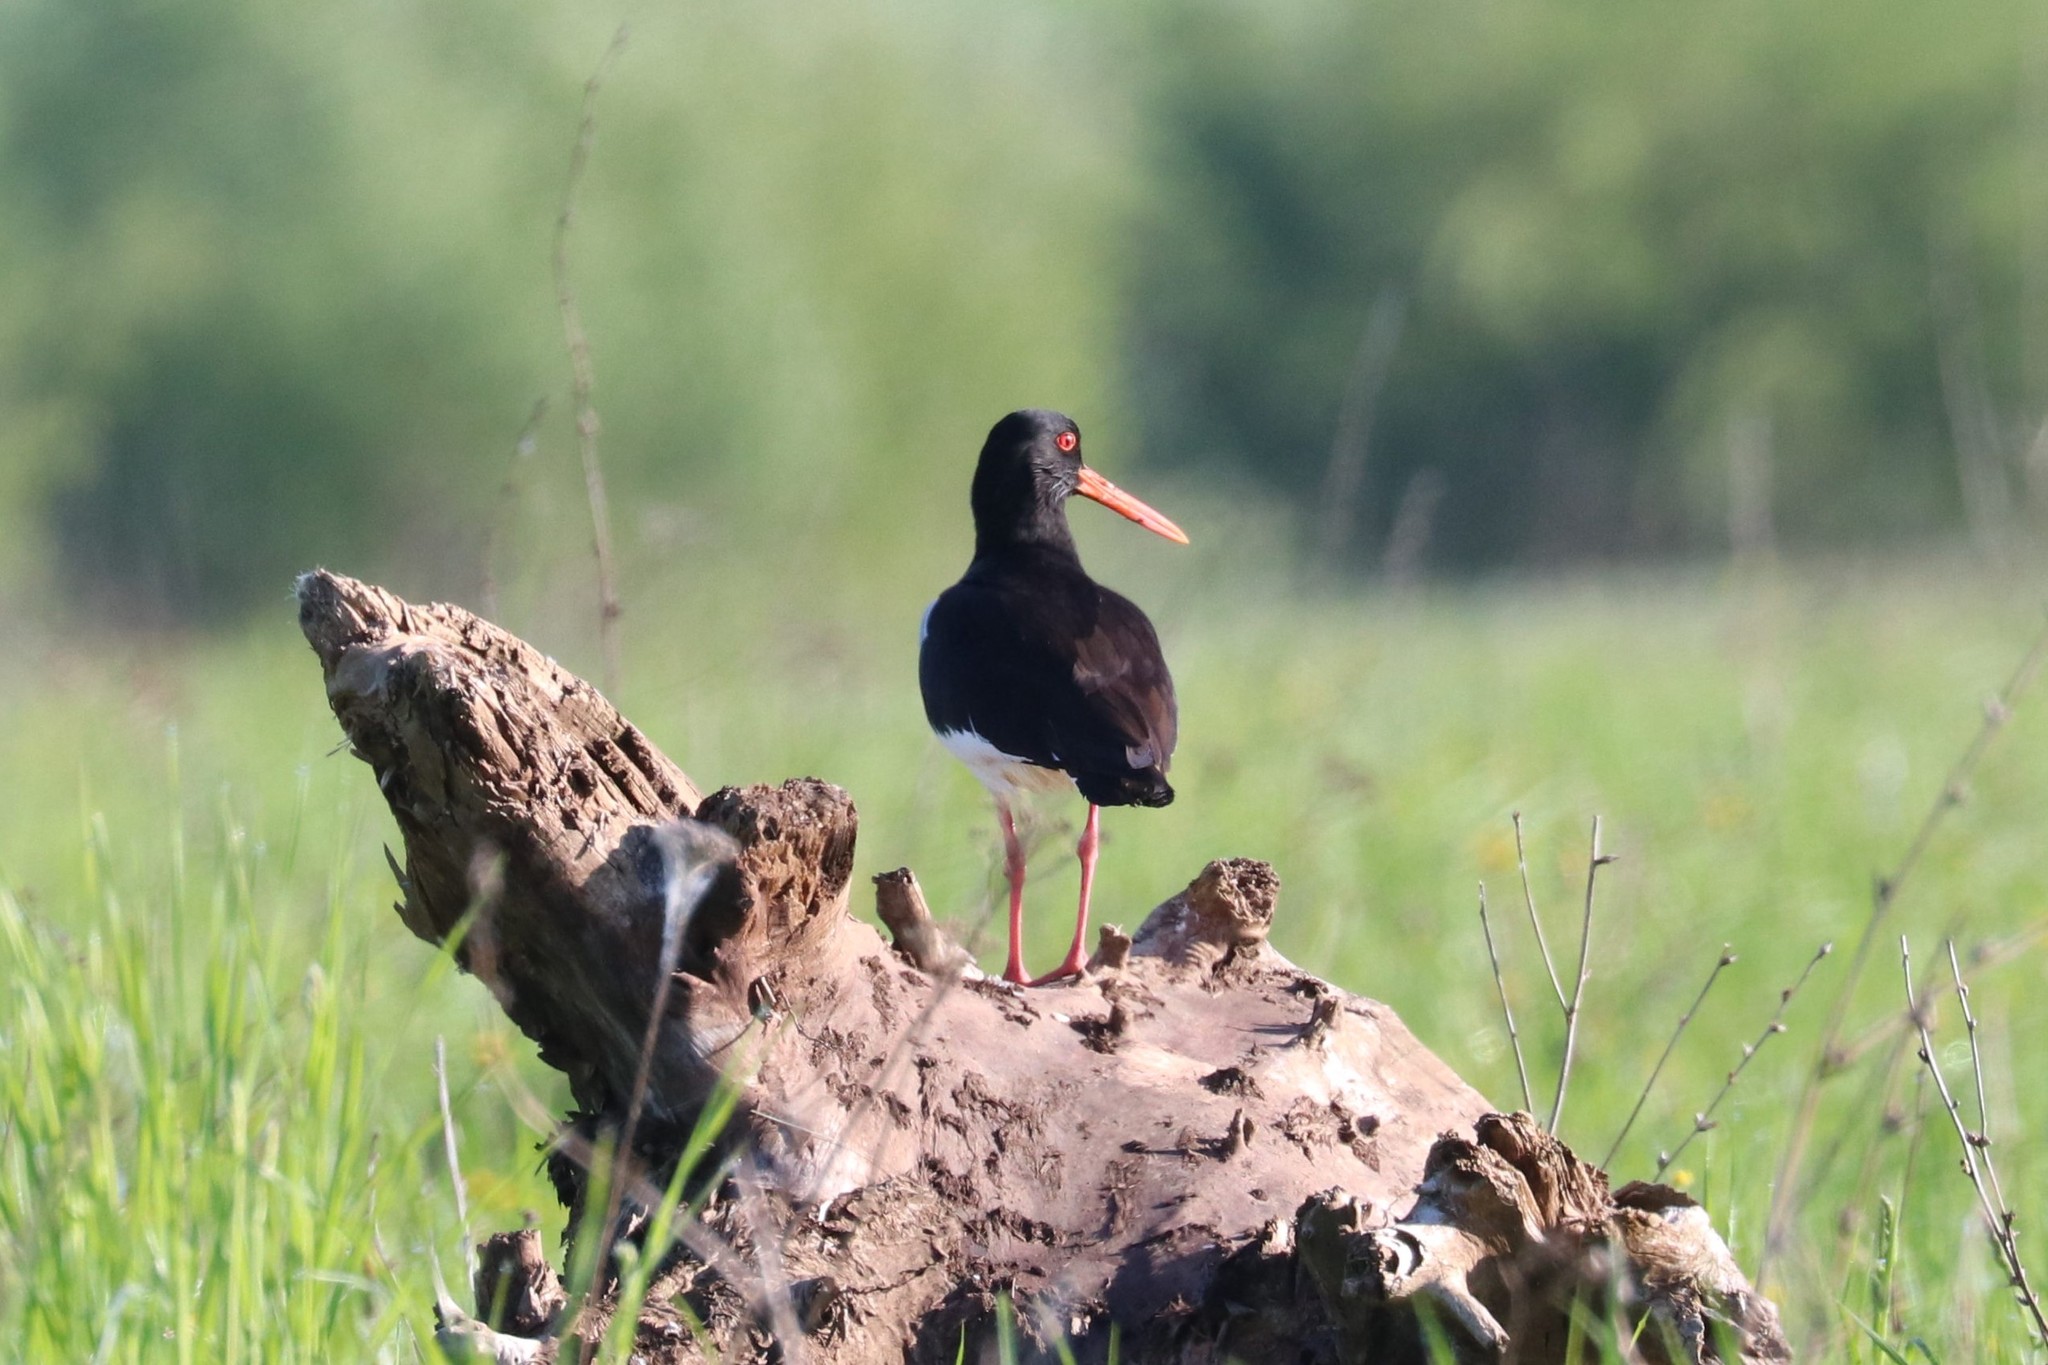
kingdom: Animalia
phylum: Chordata
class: Aves
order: Charadriiformes
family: Haematopodidae
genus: Haematopus
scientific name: Haematopus ostralegus
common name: Eurasian oystercatcher
